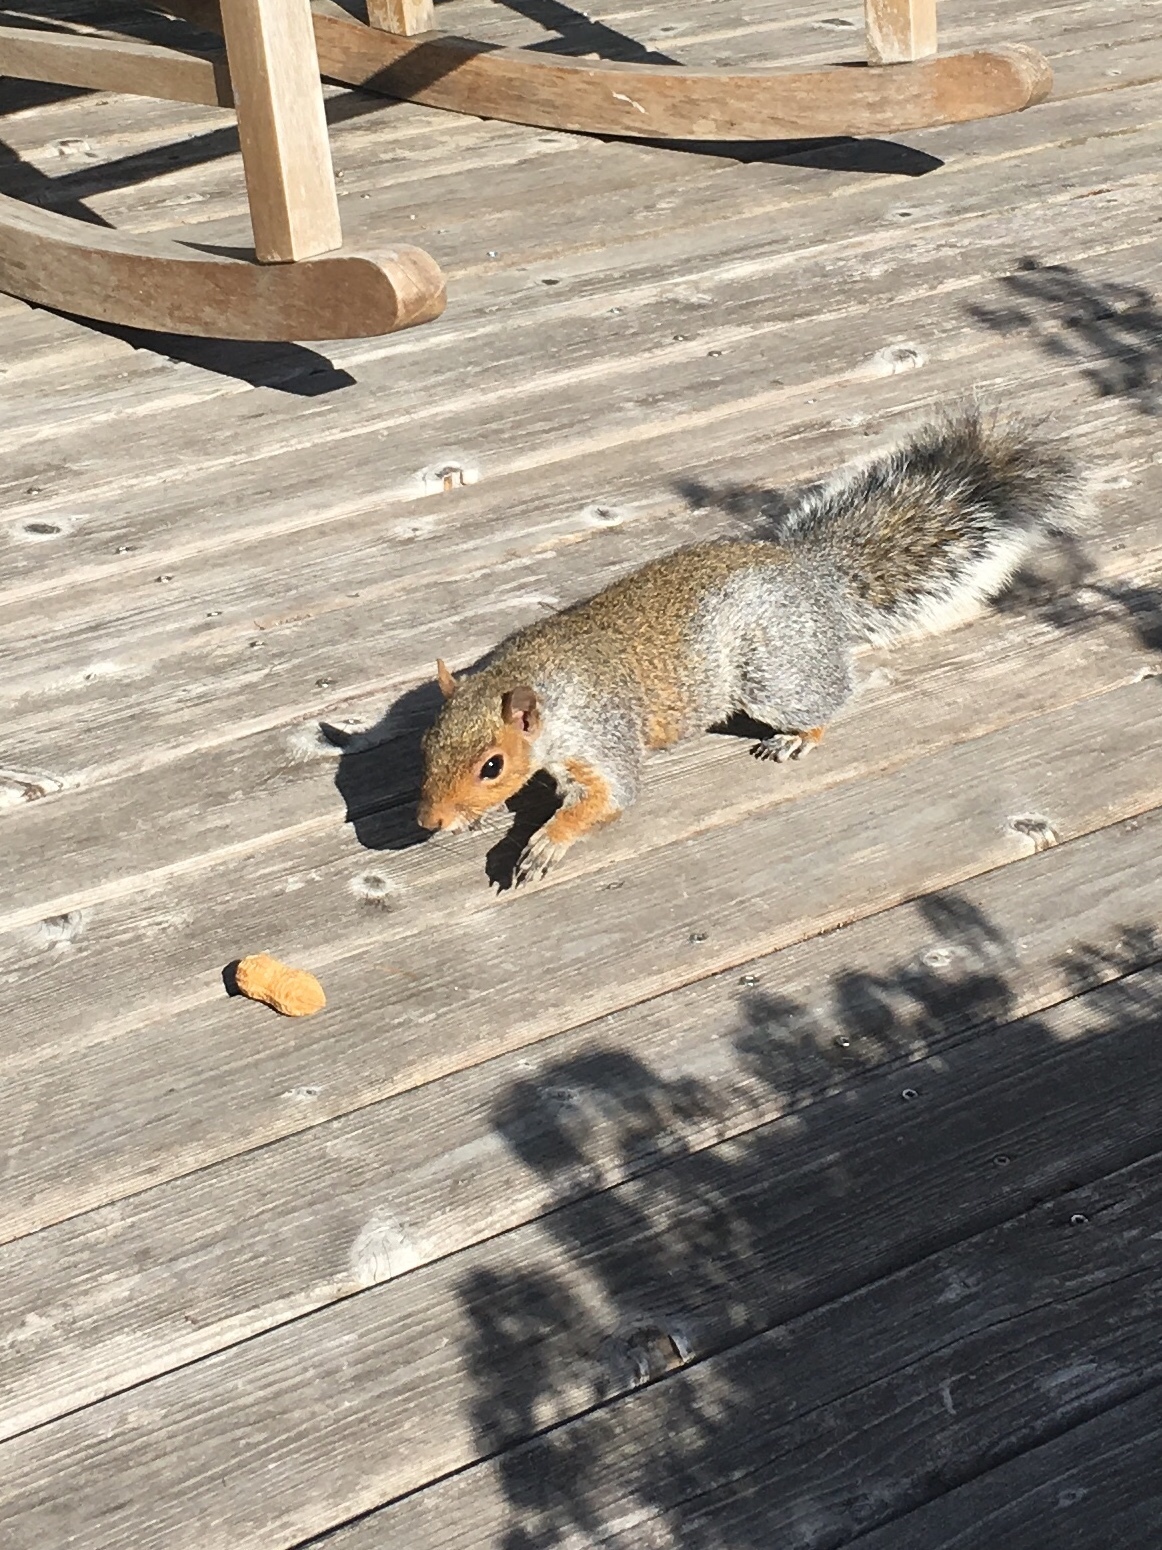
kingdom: Animalia
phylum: Chordata
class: Mammalia
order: Rodentia
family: Sciuridae
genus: Sciurus
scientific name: Sciurus carolinensis
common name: Eastern gray squirrel
